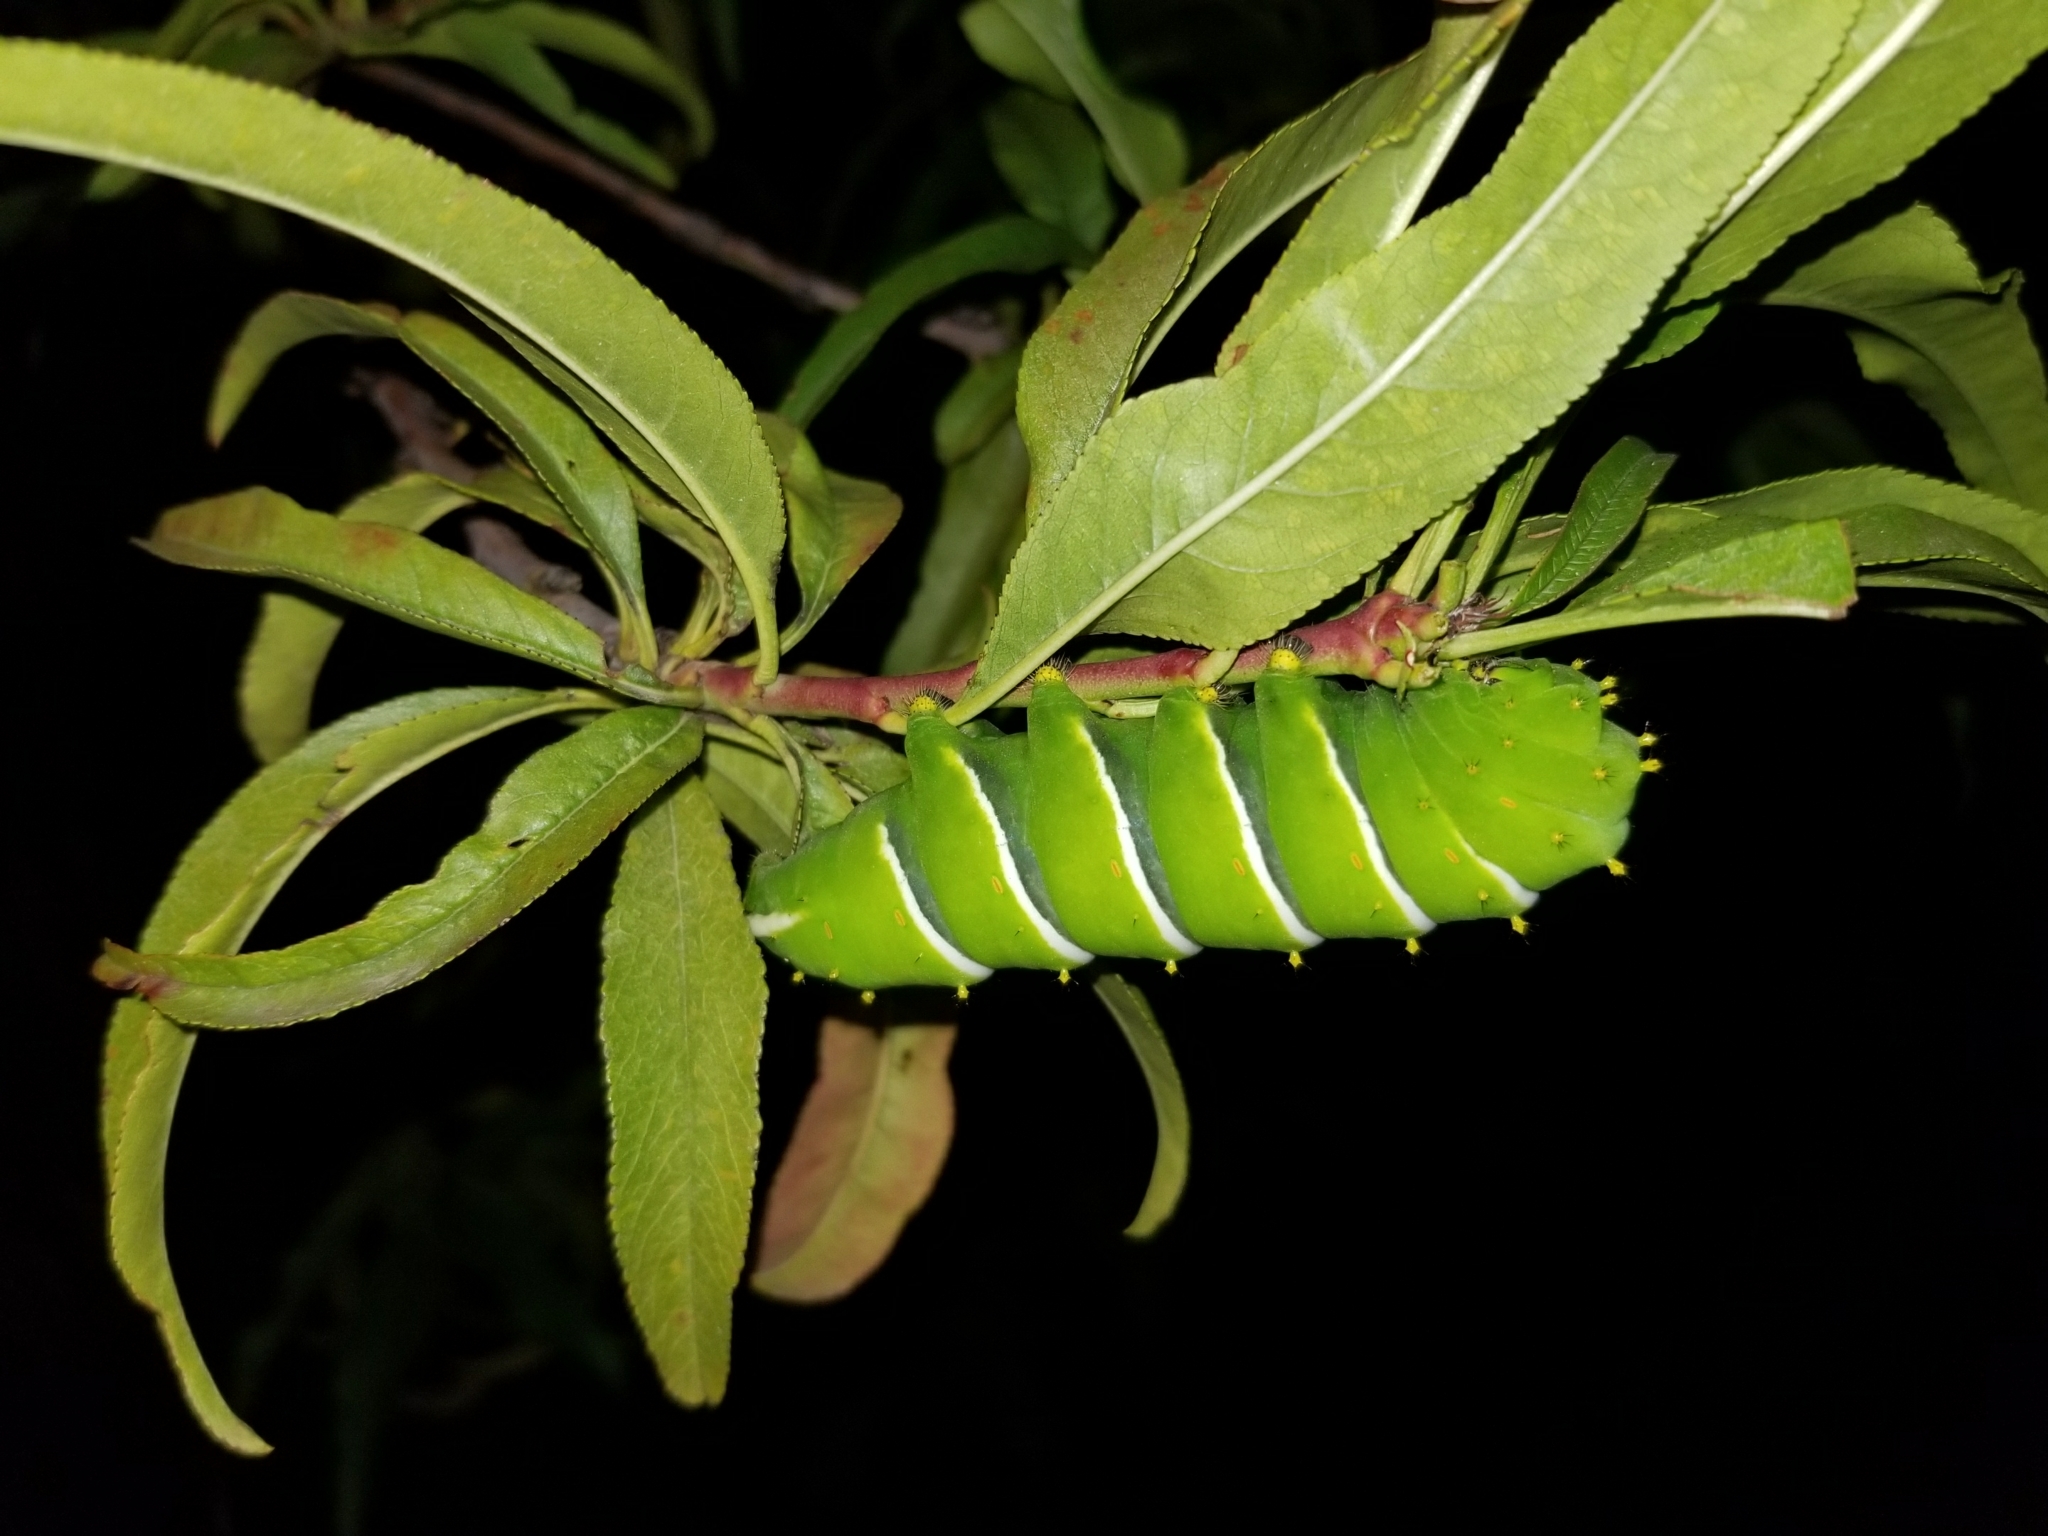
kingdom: Animalia
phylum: Arthropoda
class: Insecta
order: Lepidoptera
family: Saturniidae
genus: Rothschildia
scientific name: Rothschildia lebeau
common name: Lebeau's rothschildia
